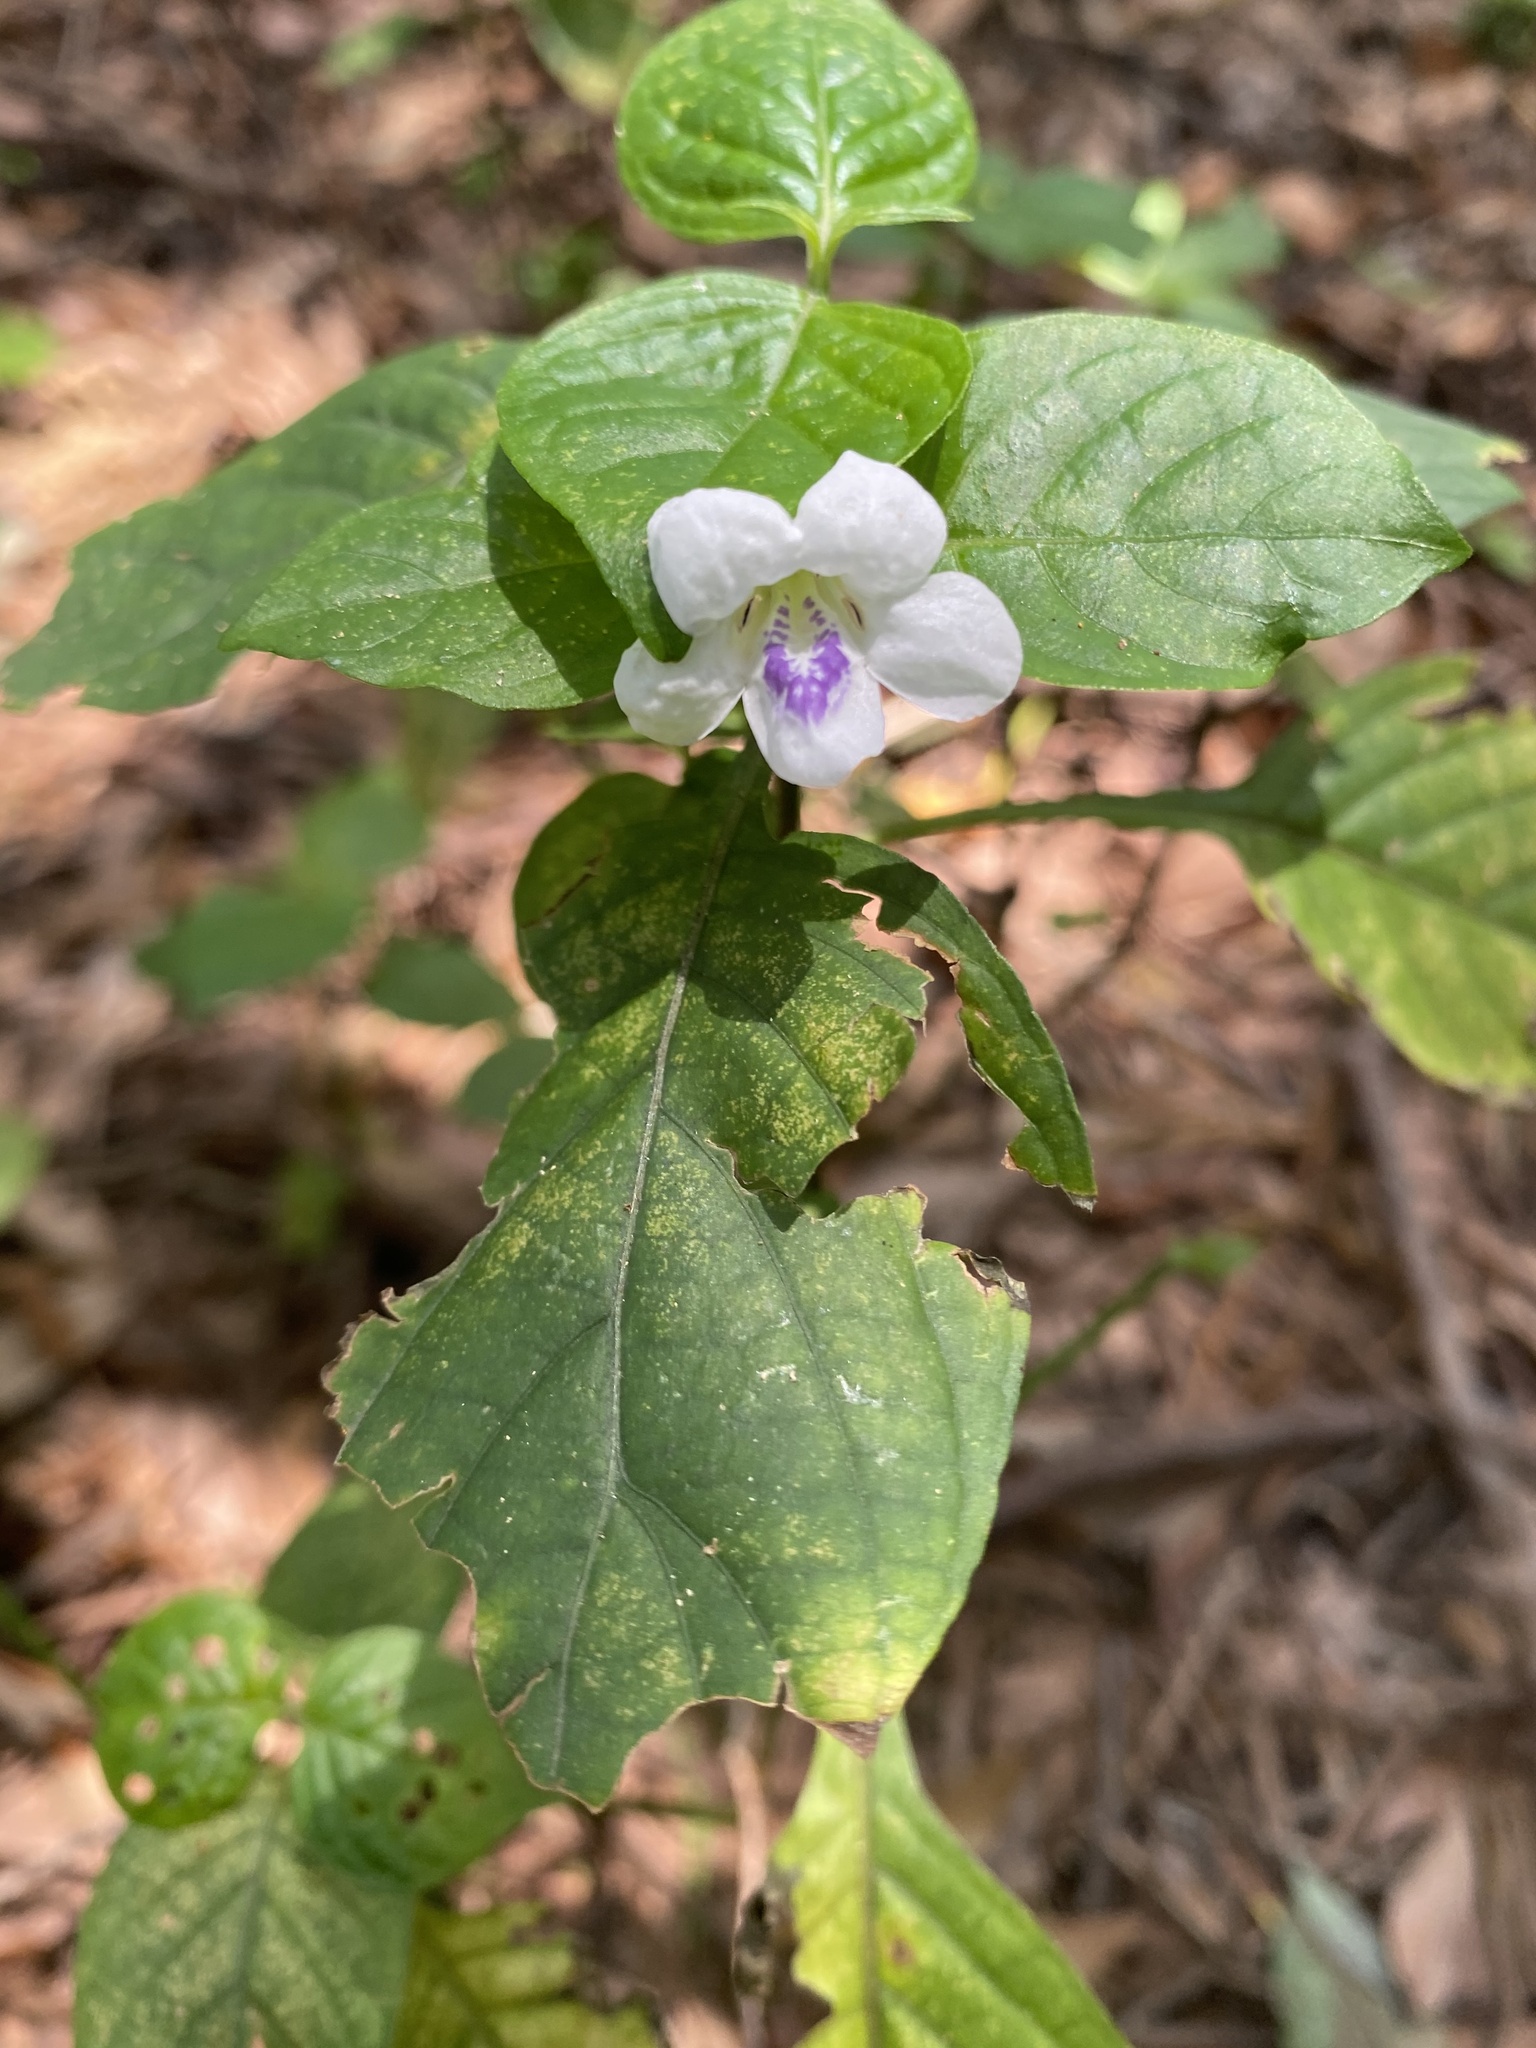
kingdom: Plantae
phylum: Tracheophyta
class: Magnoliopsida
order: Lamiales
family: Acanthaceae
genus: Asystasia
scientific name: Asystasia intrusa
